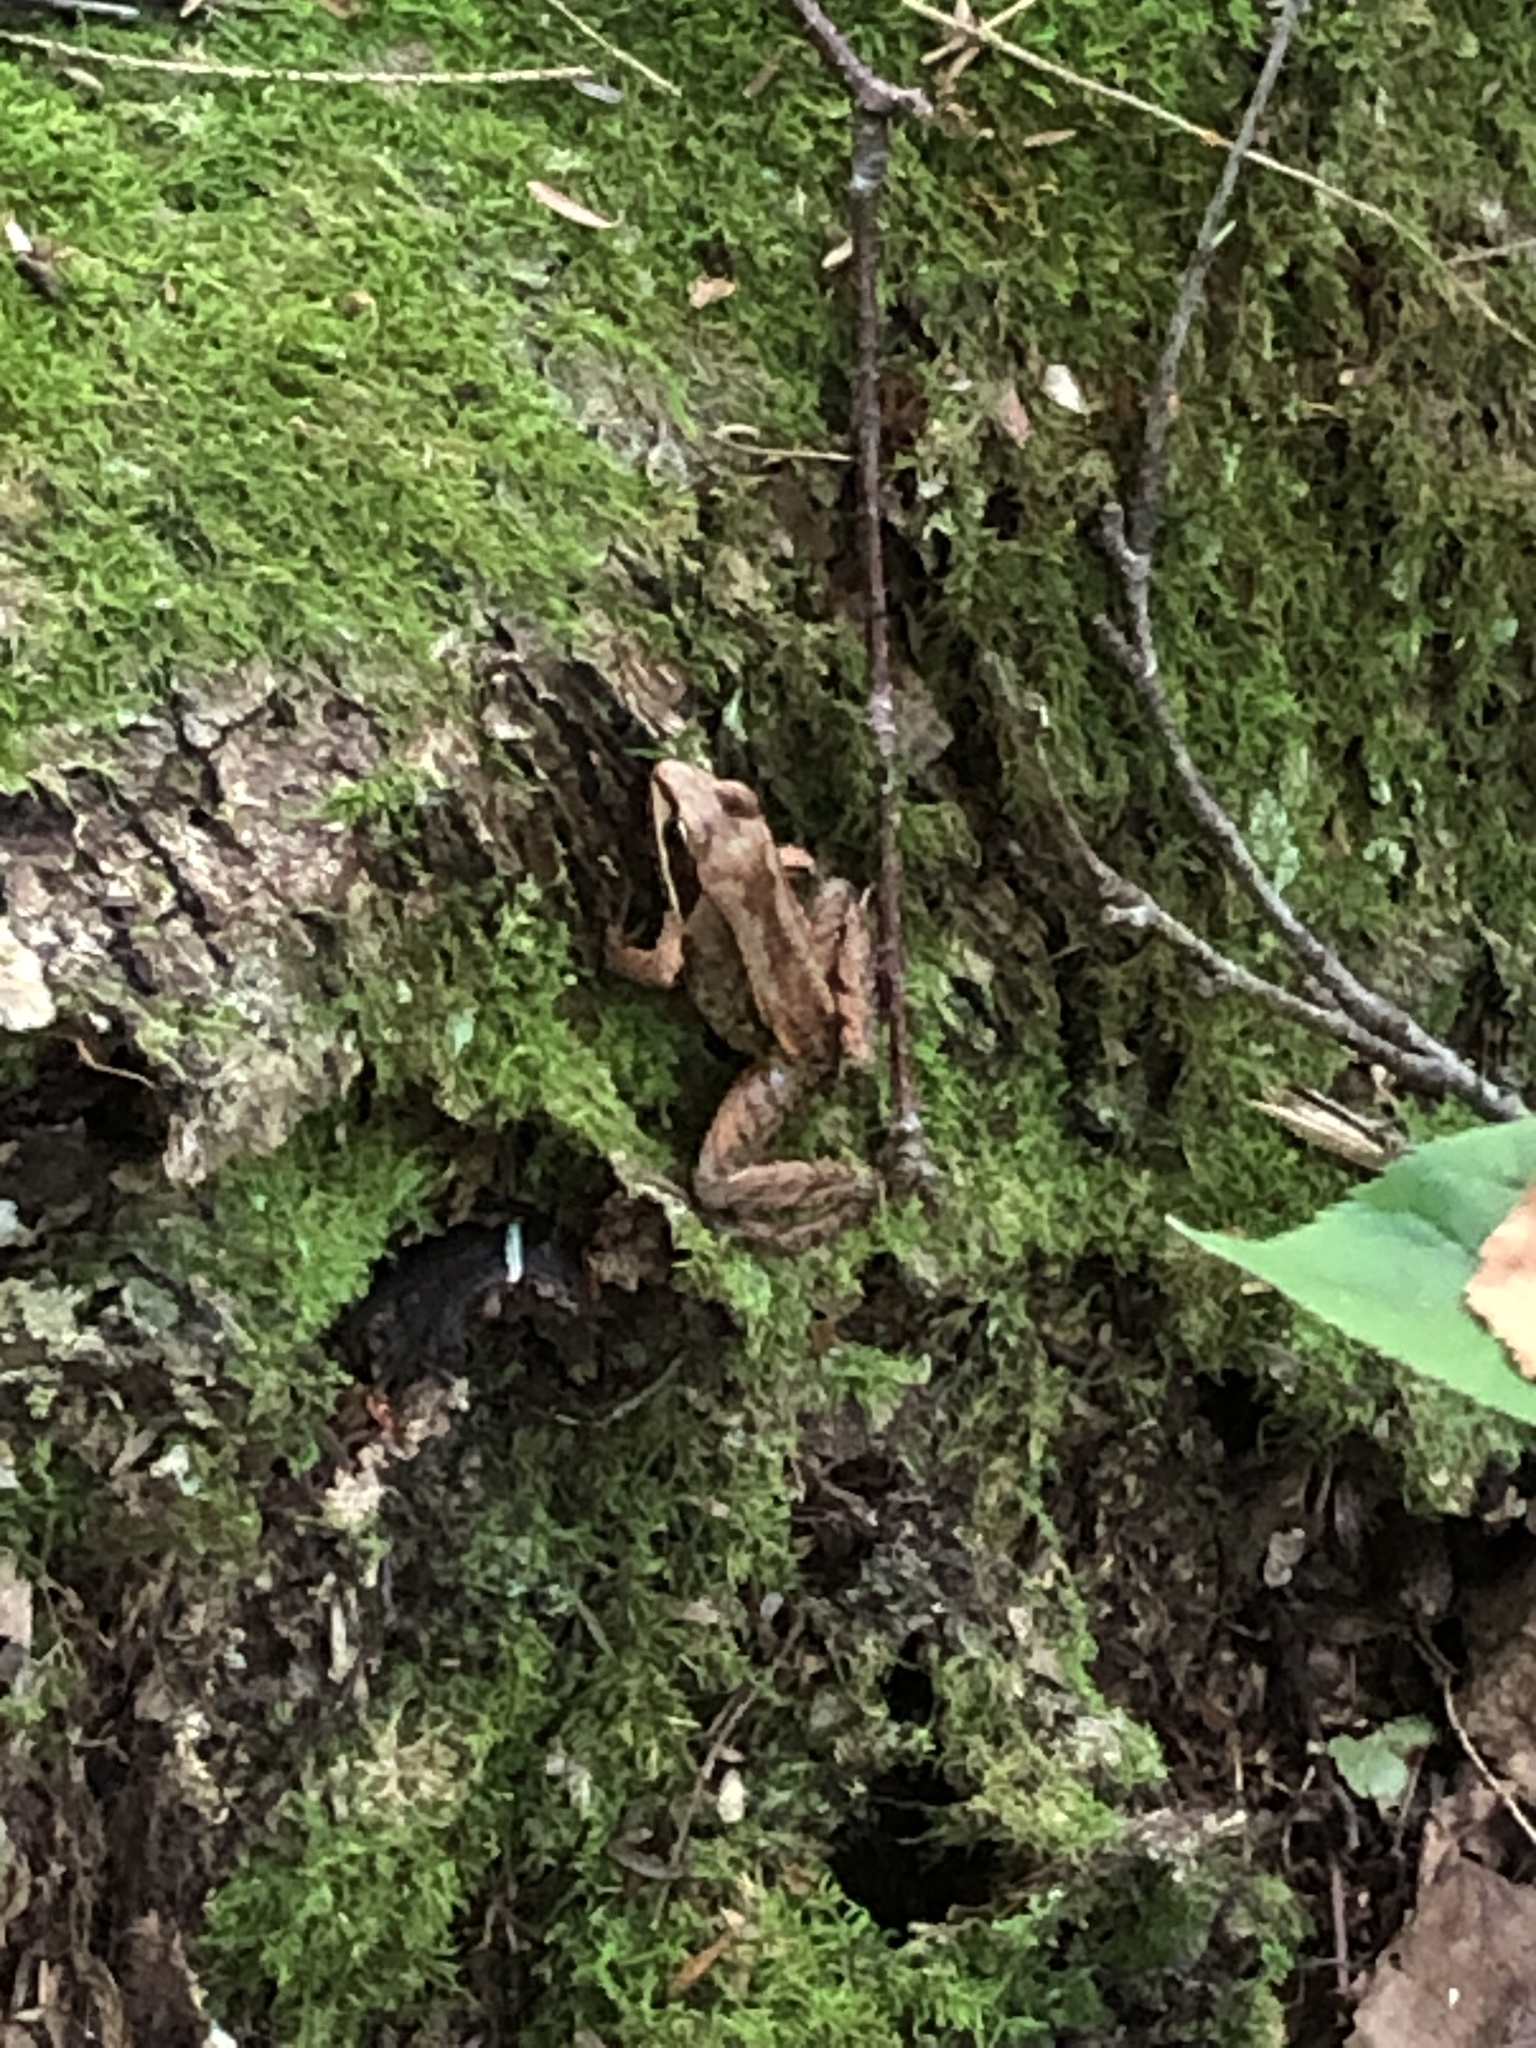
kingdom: Animalia
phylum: Chordata
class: Amphibia
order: Anura
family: Ranidae
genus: Lithobates
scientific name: Lithobates sylvaticus
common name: Wood frog
